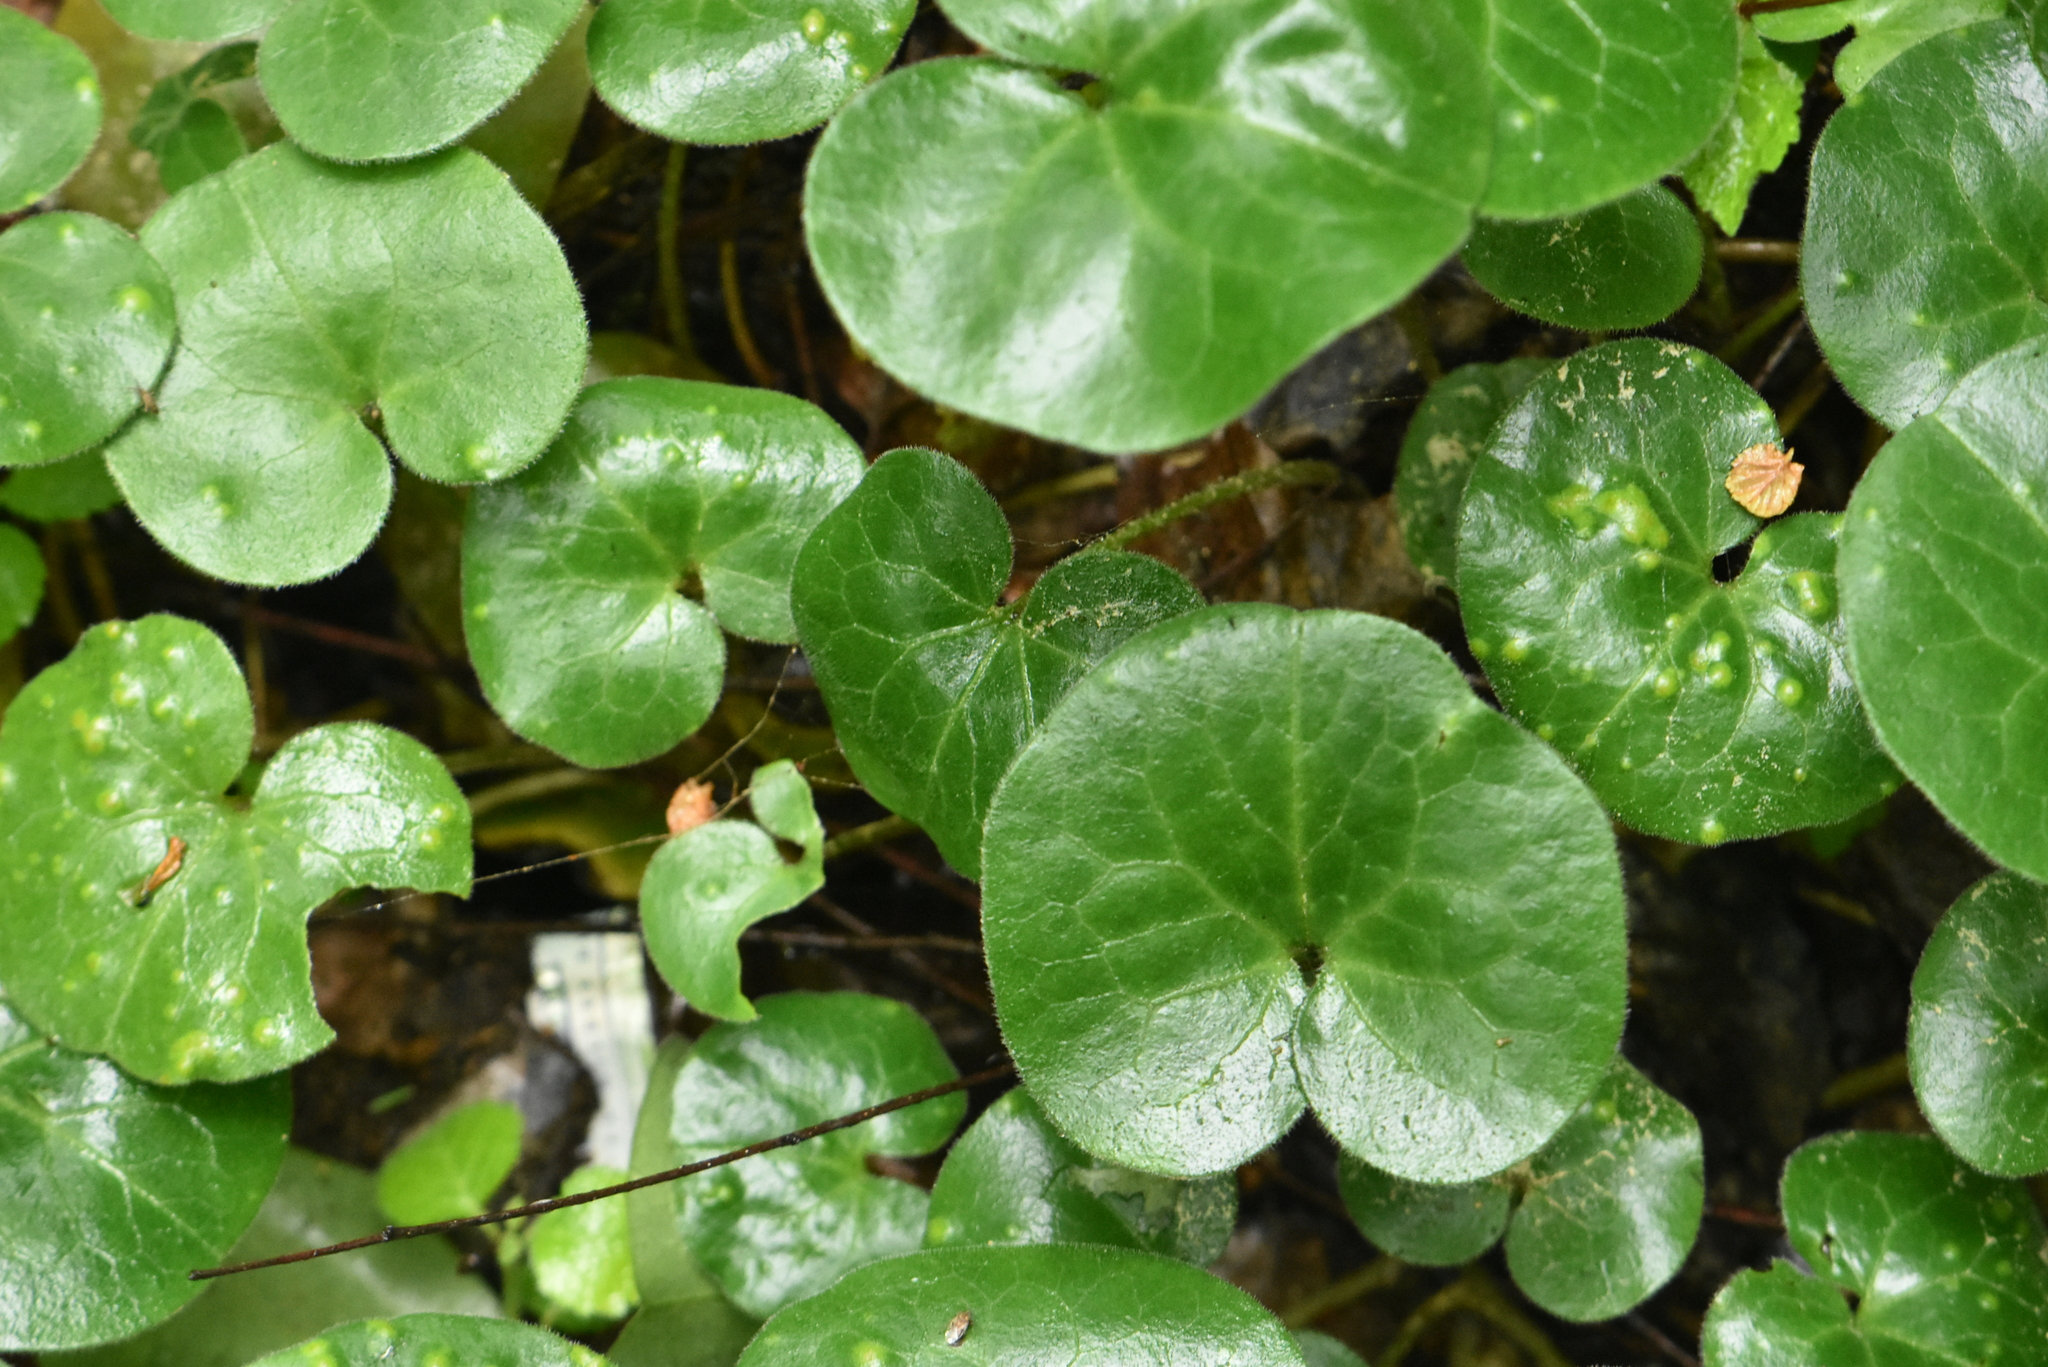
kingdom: Plantae
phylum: Tracheophyta
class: Magnoliopsida
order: Piperales
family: Aristolochiaceae
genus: Asarum
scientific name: Asarum europaeum
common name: Asarabacca
